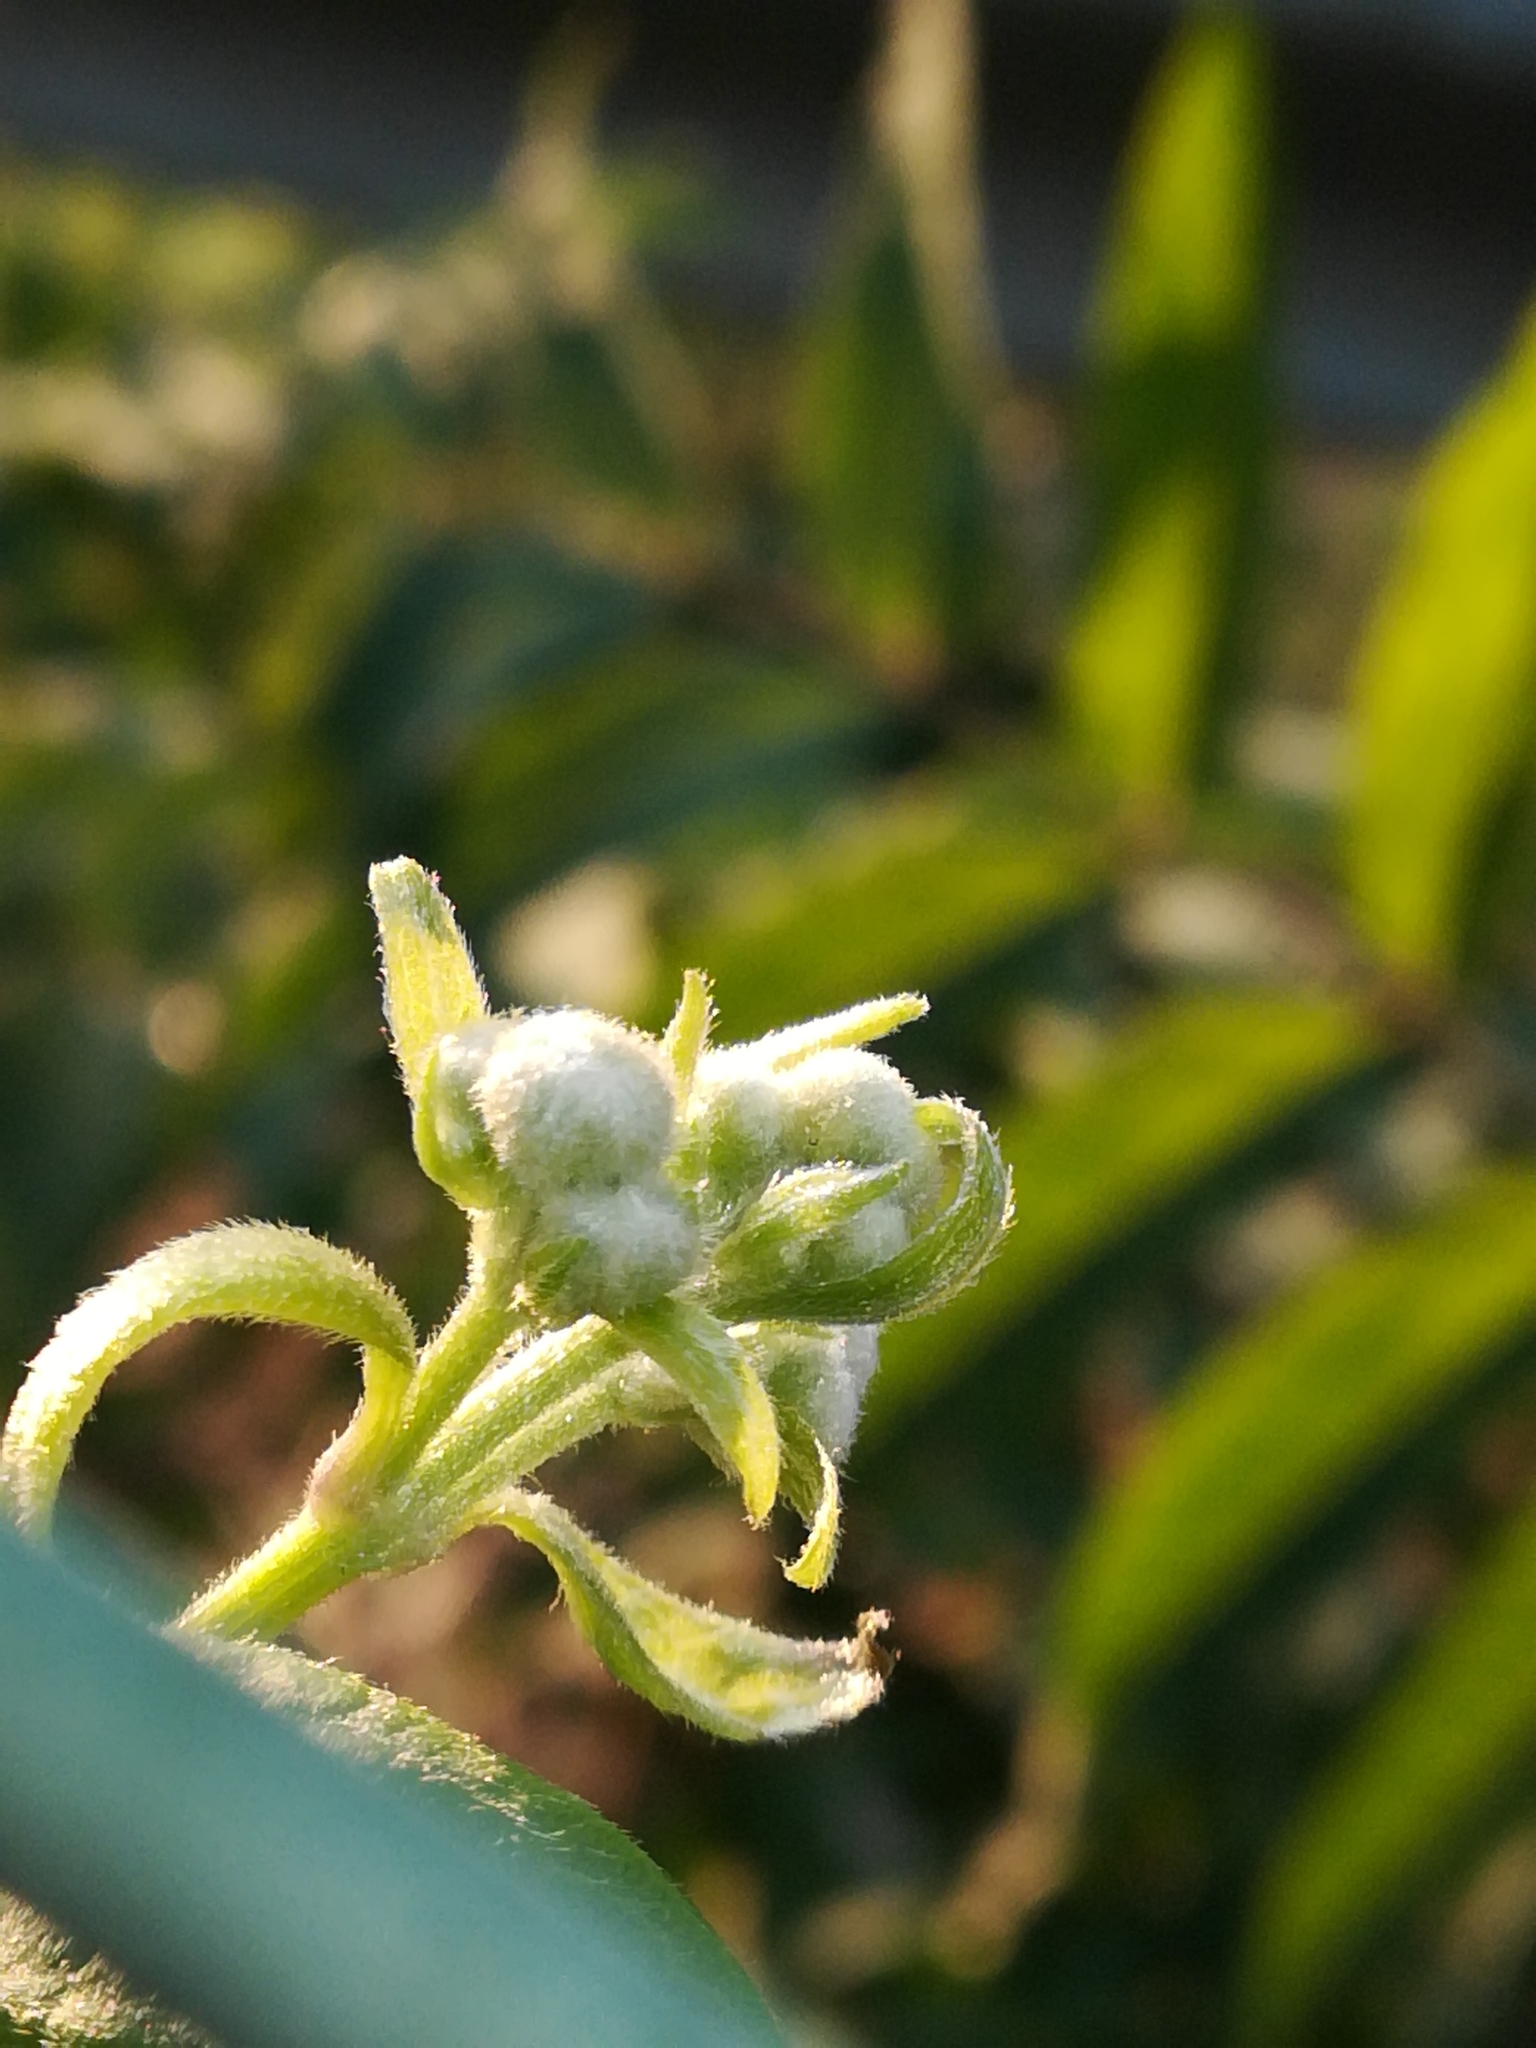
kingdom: Plantae
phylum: Tracheophyta
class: Magnoliopsida
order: Ranunculales
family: Ranunculaceae
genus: Clematis
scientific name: Clematis vitalba
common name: Evergreen clematis
